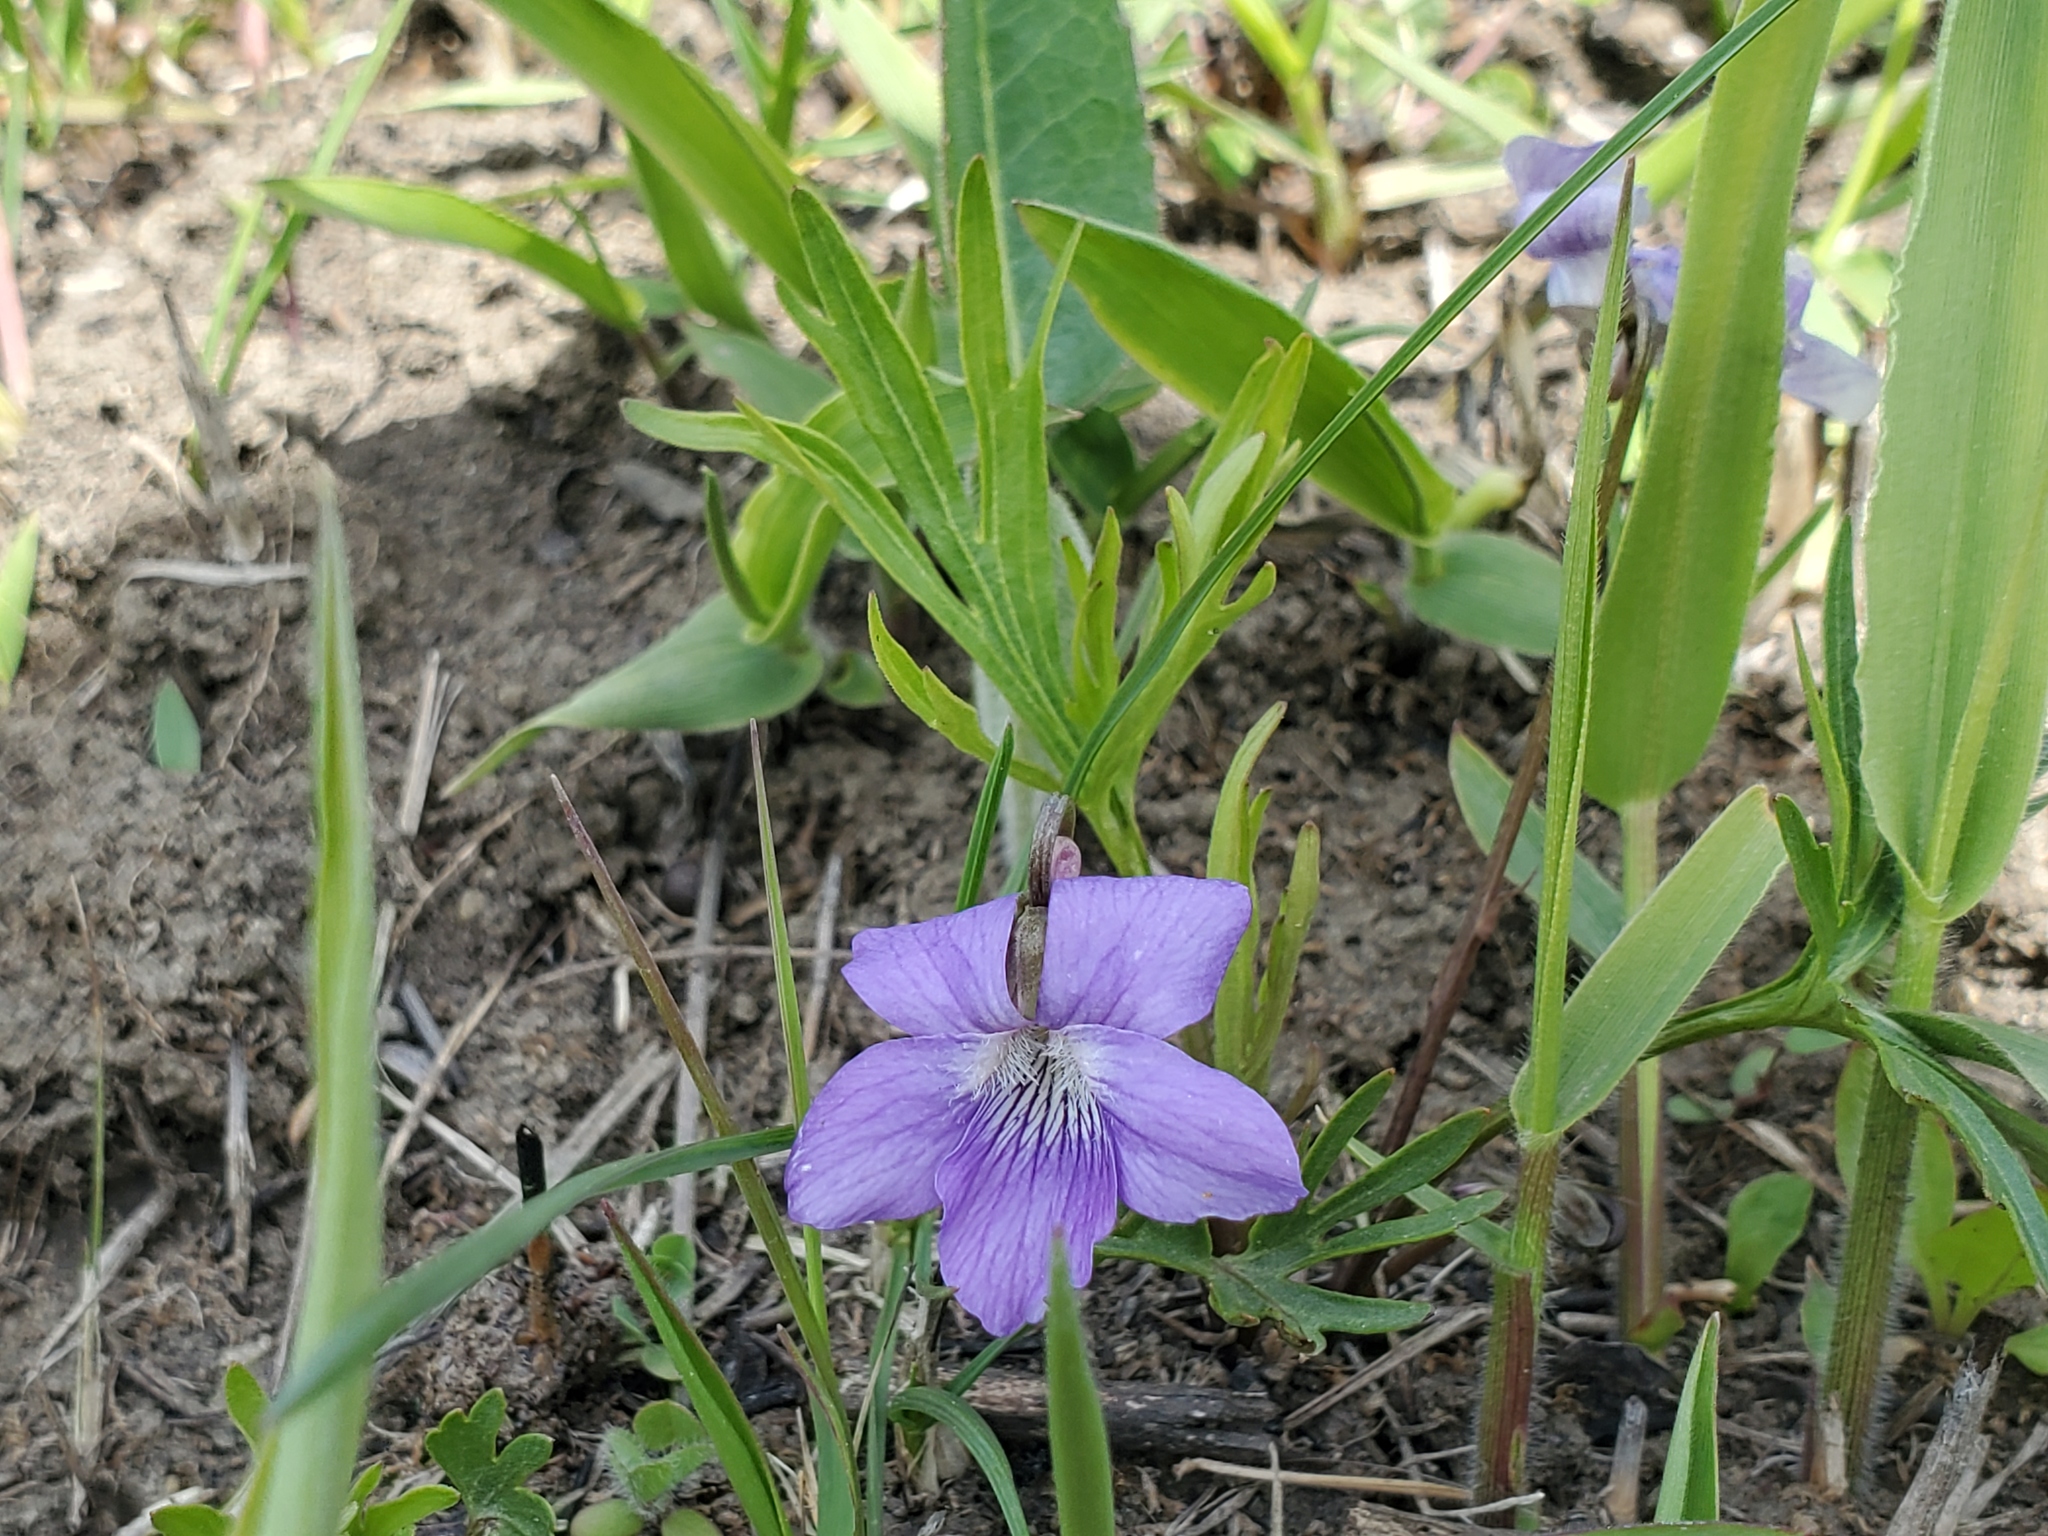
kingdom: Plantae
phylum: Tracheophyta
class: Magnoliopsida
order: Malpighiales
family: Violaceae
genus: Viola
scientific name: Viola pedatifida
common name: Prairie violet
